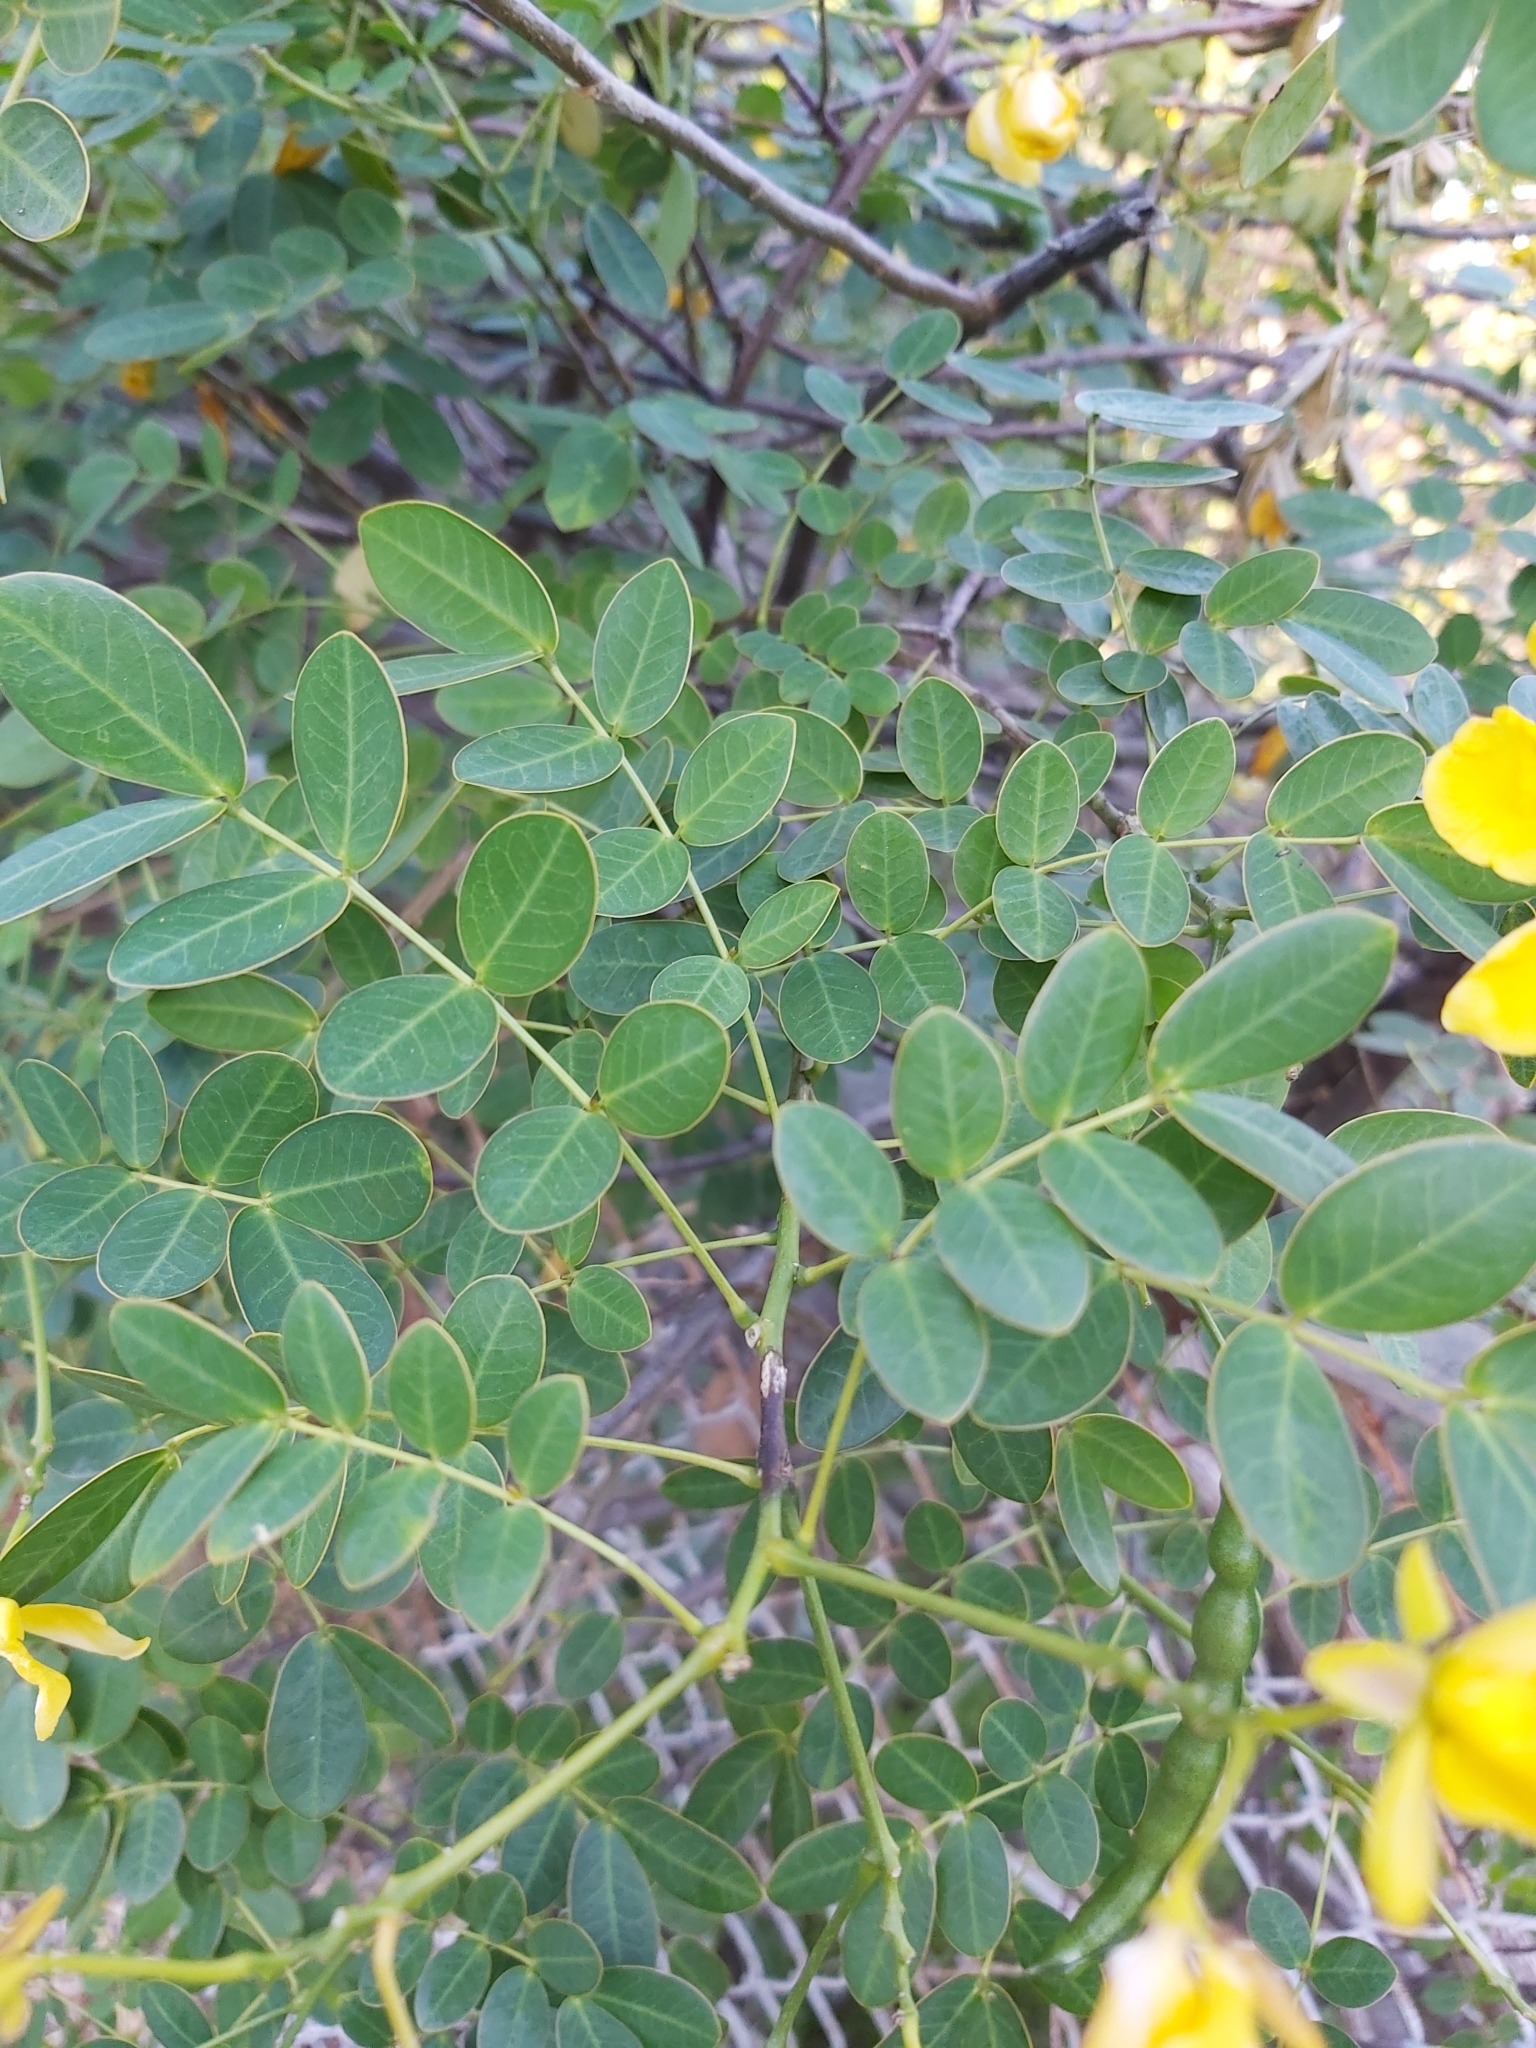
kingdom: Plantae
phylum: Tracheophyta
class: Magnoliopsida
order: Fabales
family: Fabaceae
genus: Senna
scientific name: Senna pendula
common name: Easter cassia
